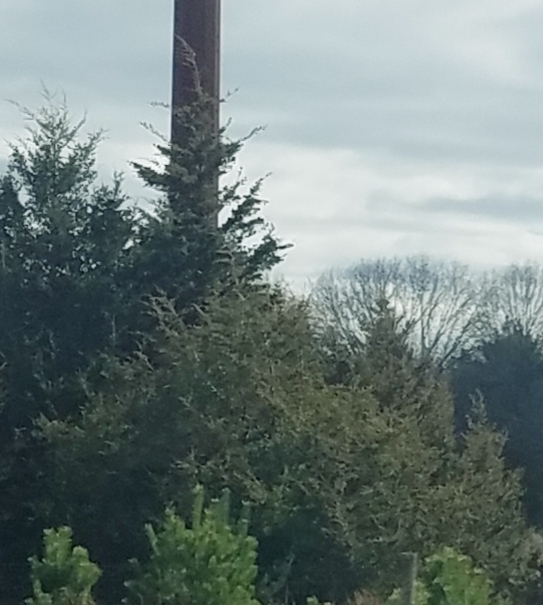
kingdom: Plantae
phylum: Tracheophyta
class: Pinopsida
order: Pinales
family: Cupressaceae
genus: Juniperus
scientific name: Juniperus virginiana
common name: Red juniper
